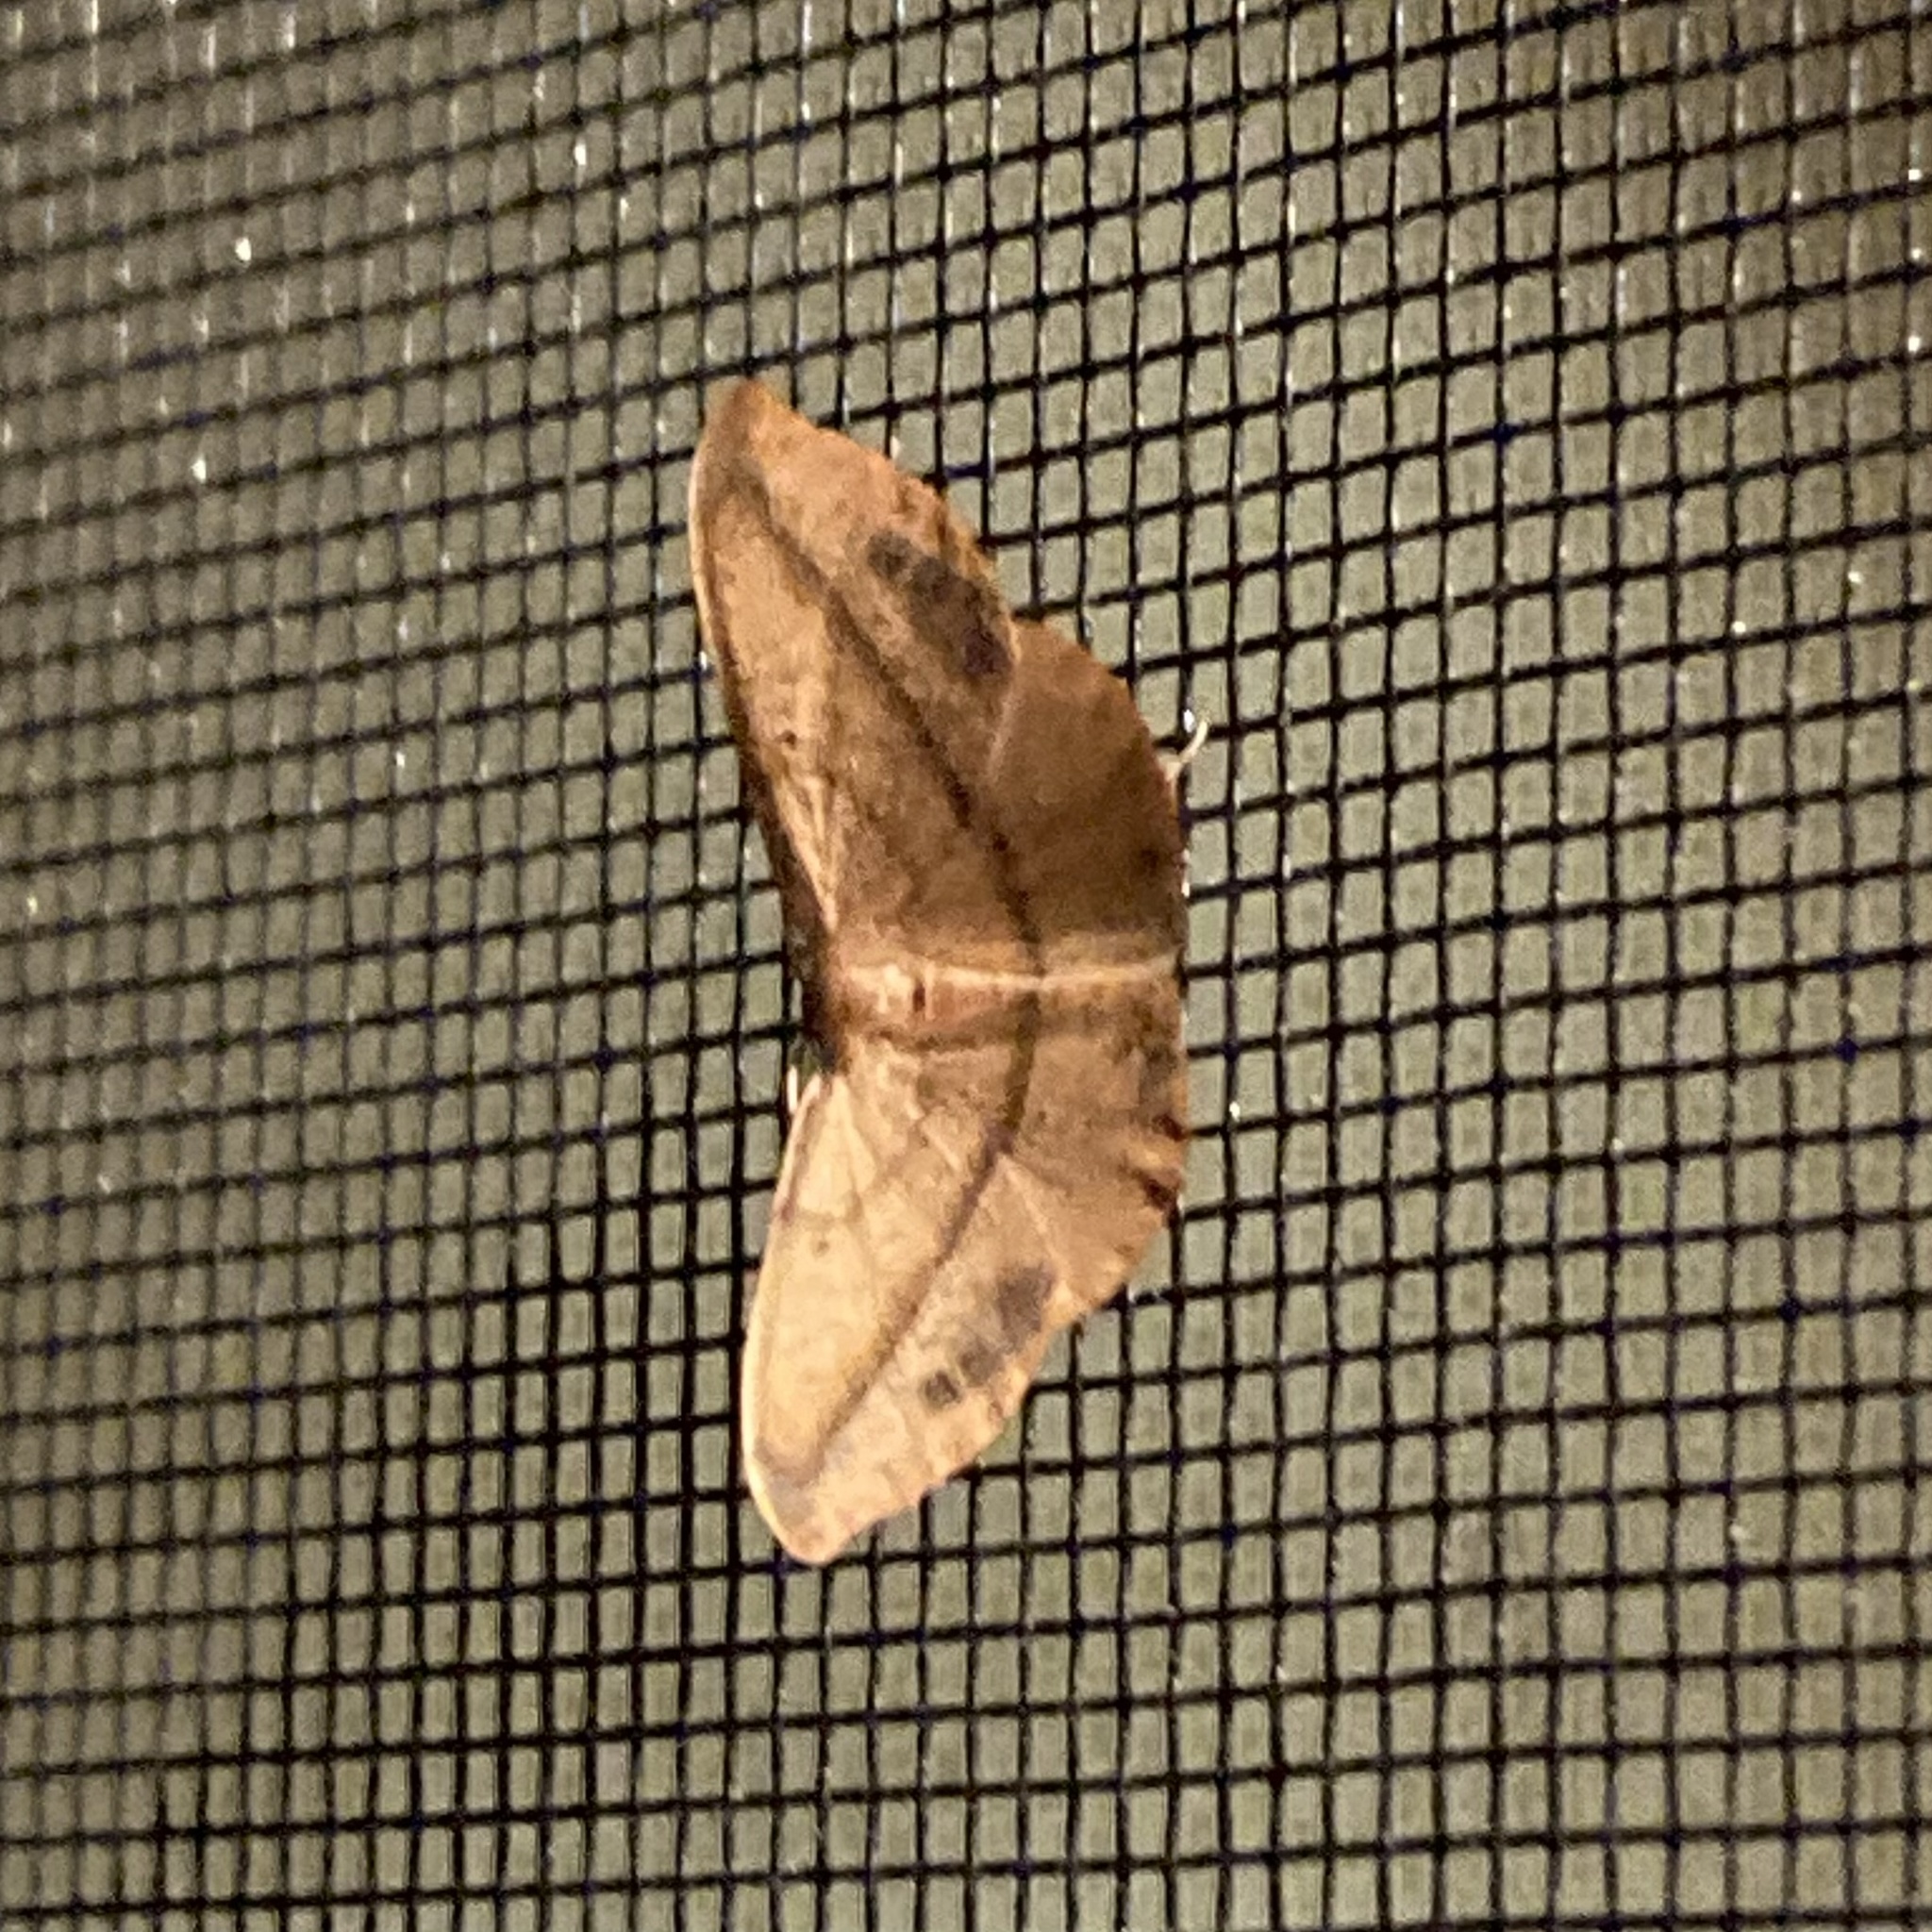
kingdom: Animalia
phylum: Arthropoda
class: Insecta
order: Lepidoptera
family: Geometridae
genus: Patalene
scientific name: Patalene olyzonaria
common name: Juniper geometer moth
